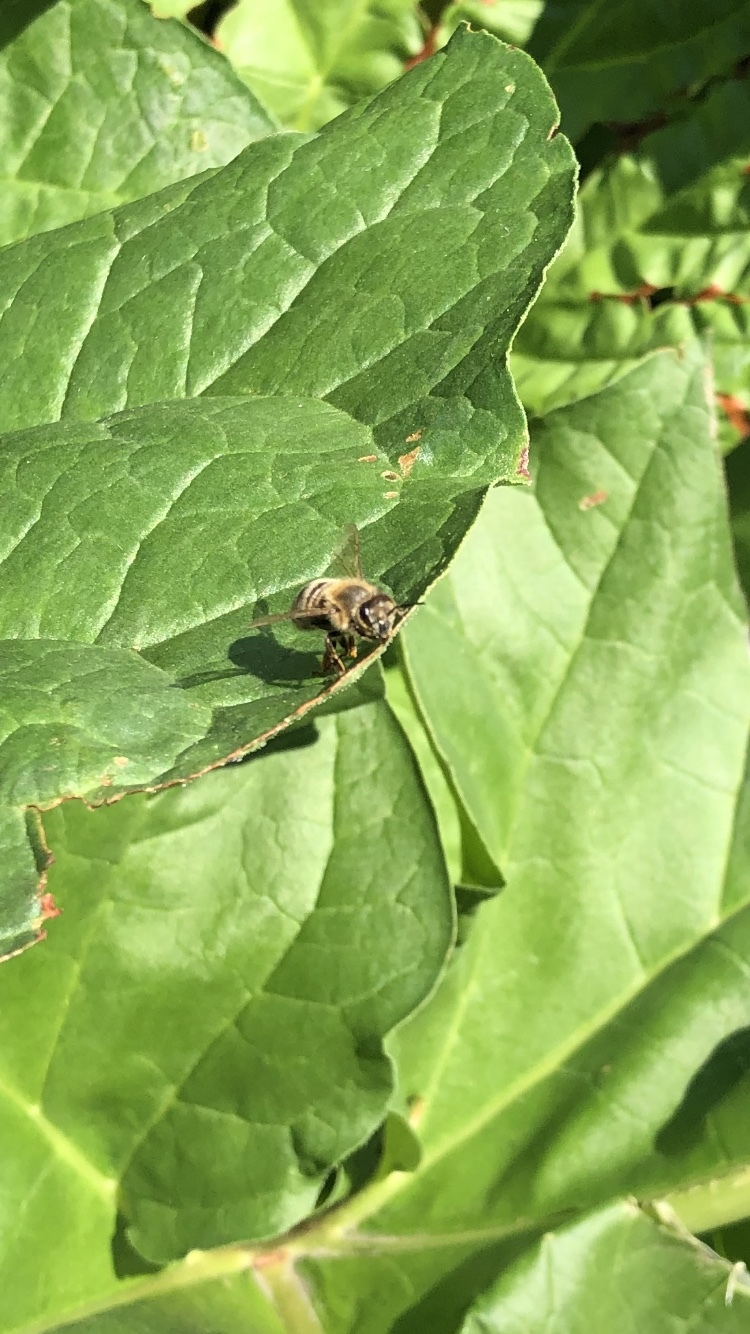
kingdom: Animalia
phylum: Arthropoda
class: Insecta
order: Hymenoptera
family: Apidae
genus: Apis
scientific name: Apis mellifera
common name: Honey bee
